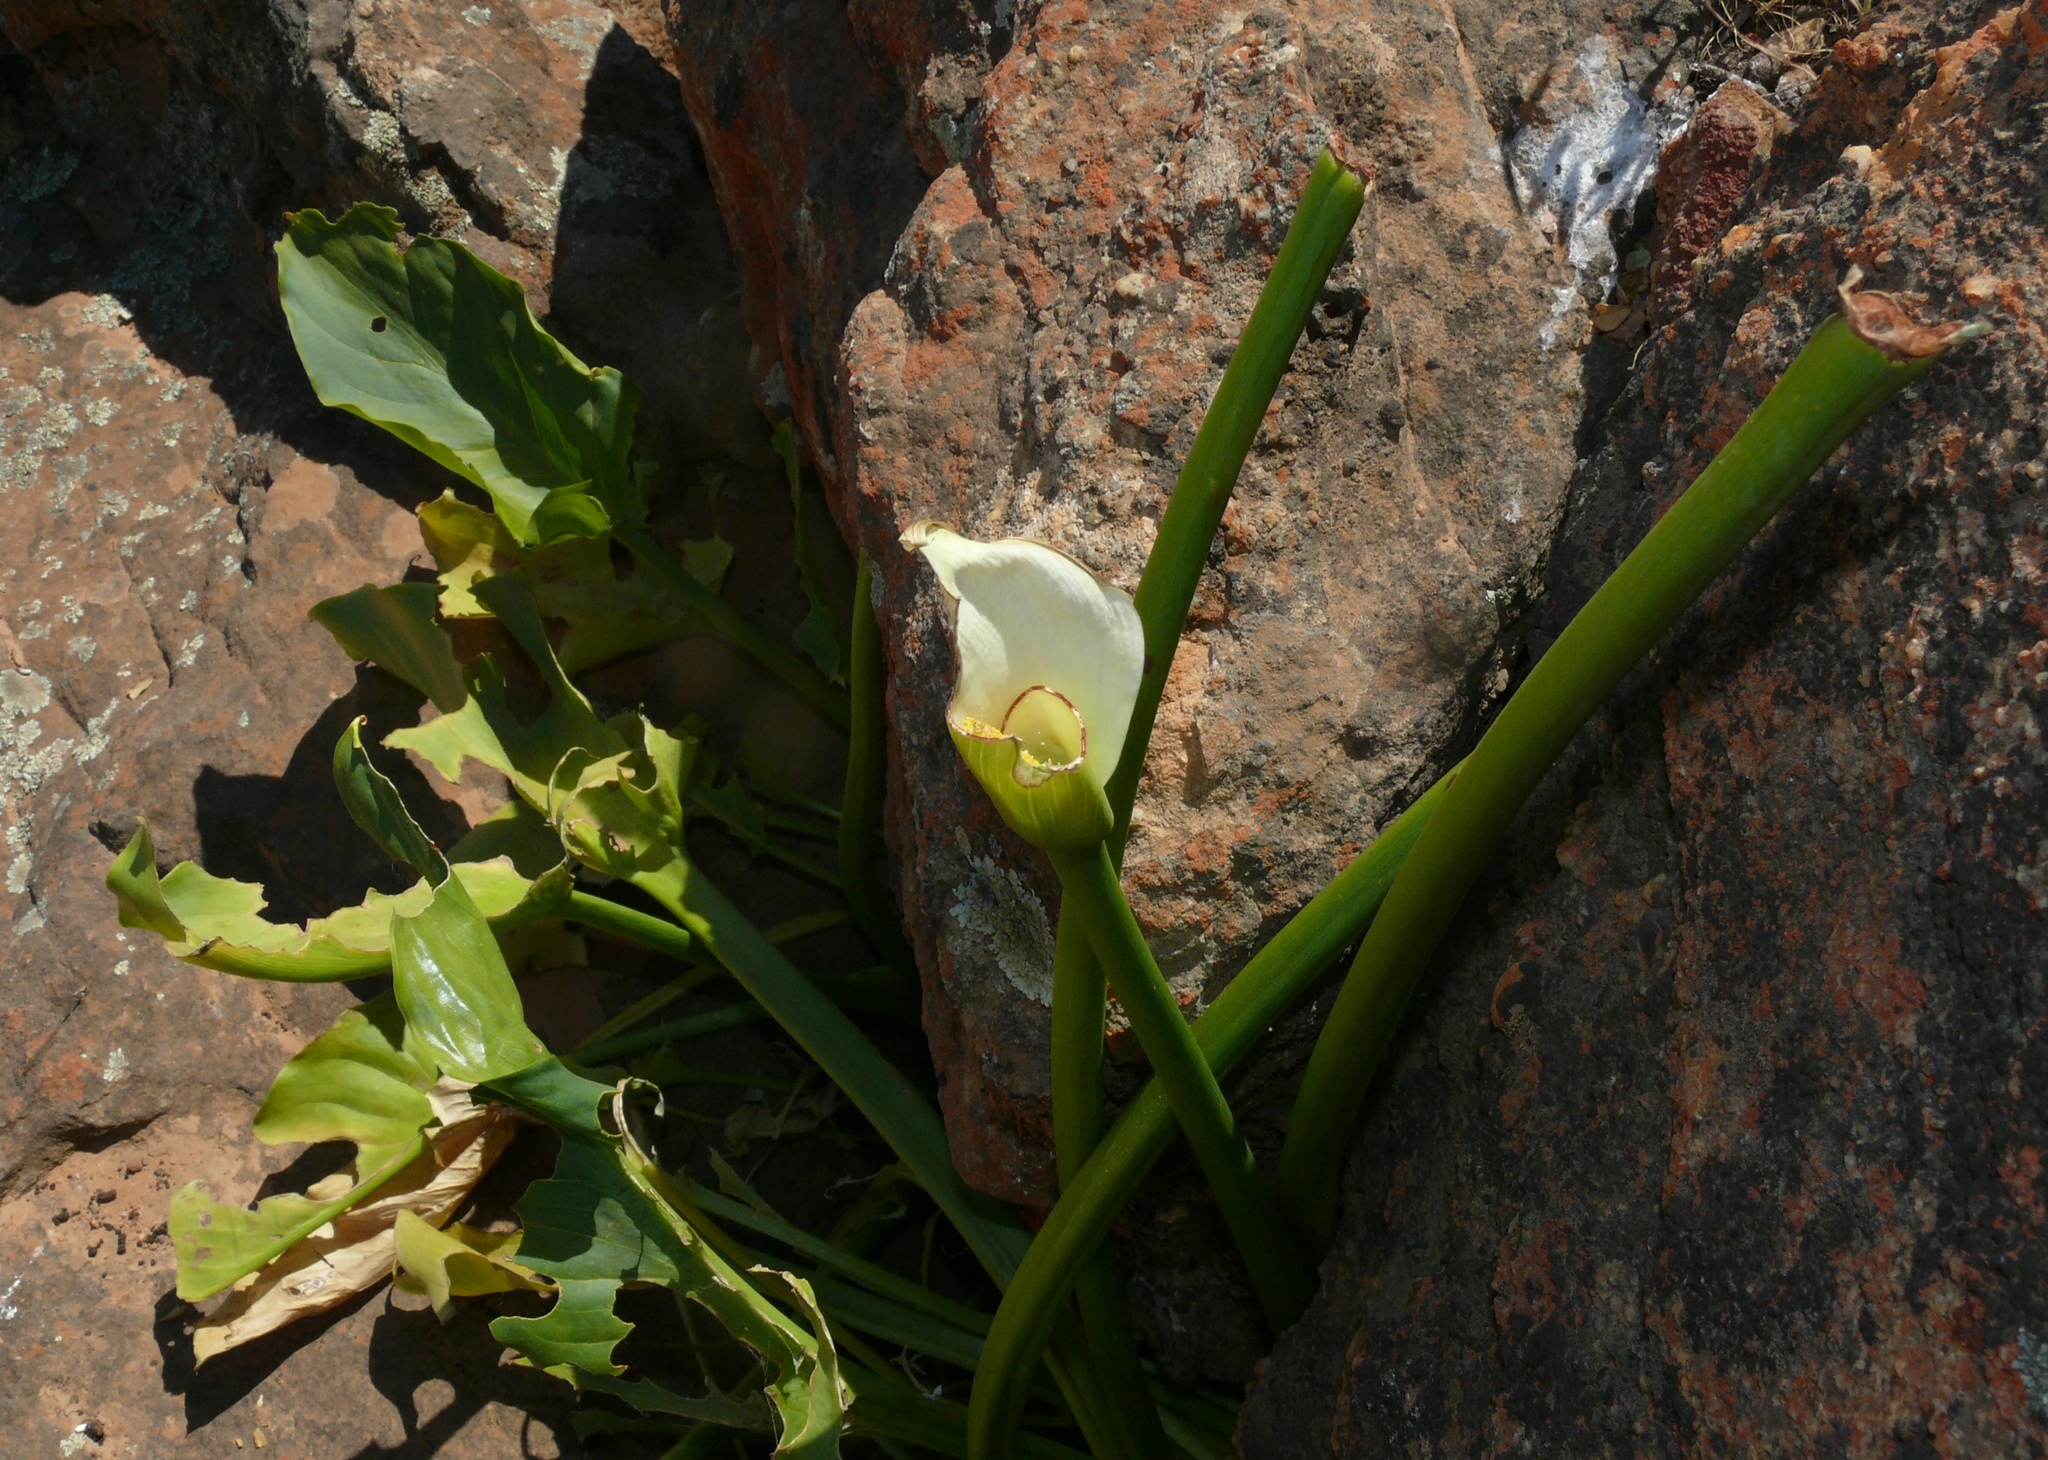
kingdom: Plantae
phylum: Tracheophyta
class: Liliopsida
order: Alismatales
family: Araceae
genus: Zantedeschia
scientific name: Zantedeschia aethiopica
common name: Altar-lily
